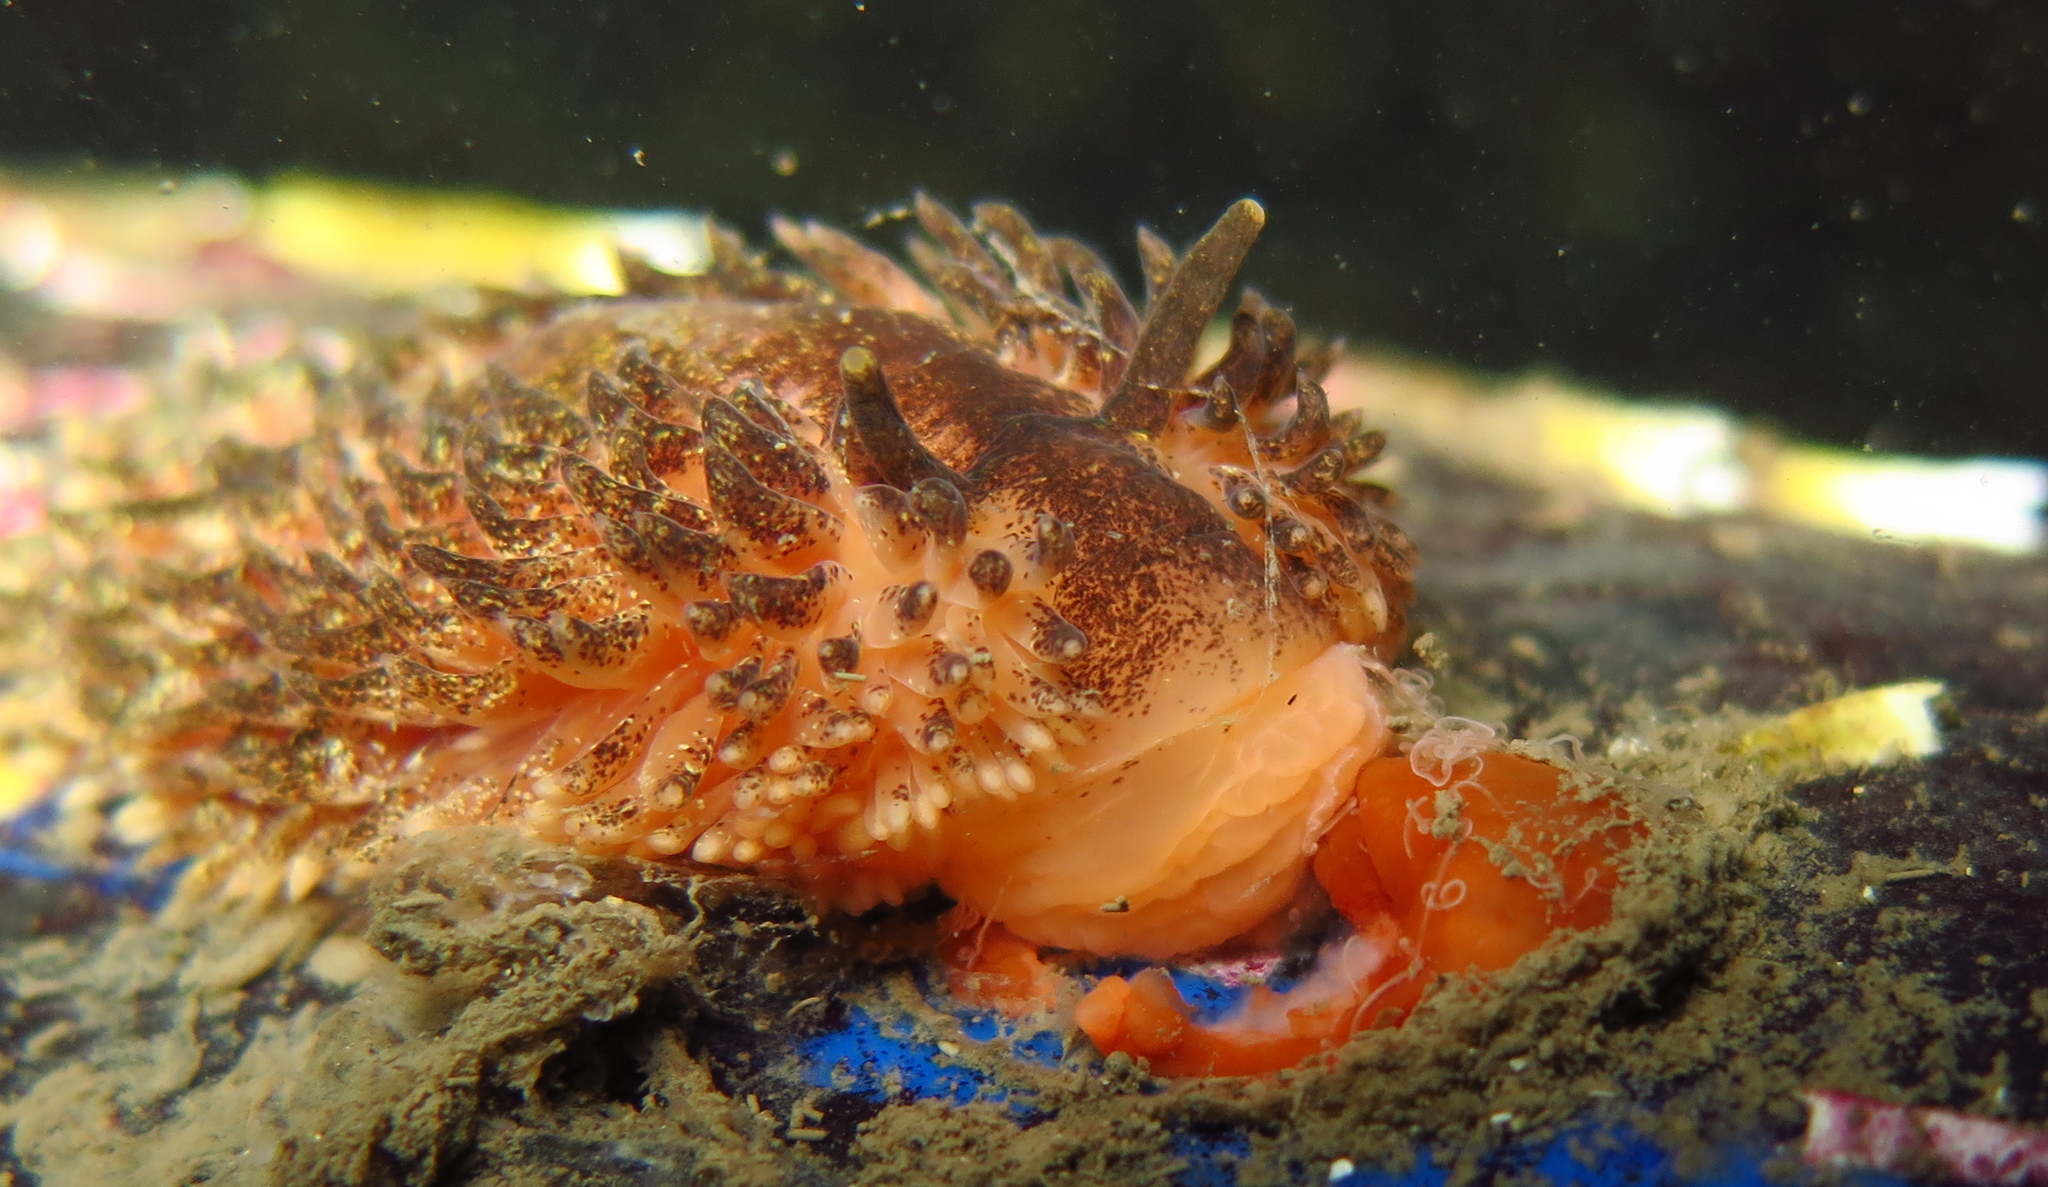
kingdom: Animalia
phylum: Mollusca
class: Gastropoda
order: Nudibranchia
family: Aeolidiidae
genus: Aeolidia
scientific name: Aeolidia papillosa
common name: Common grey sea slug
